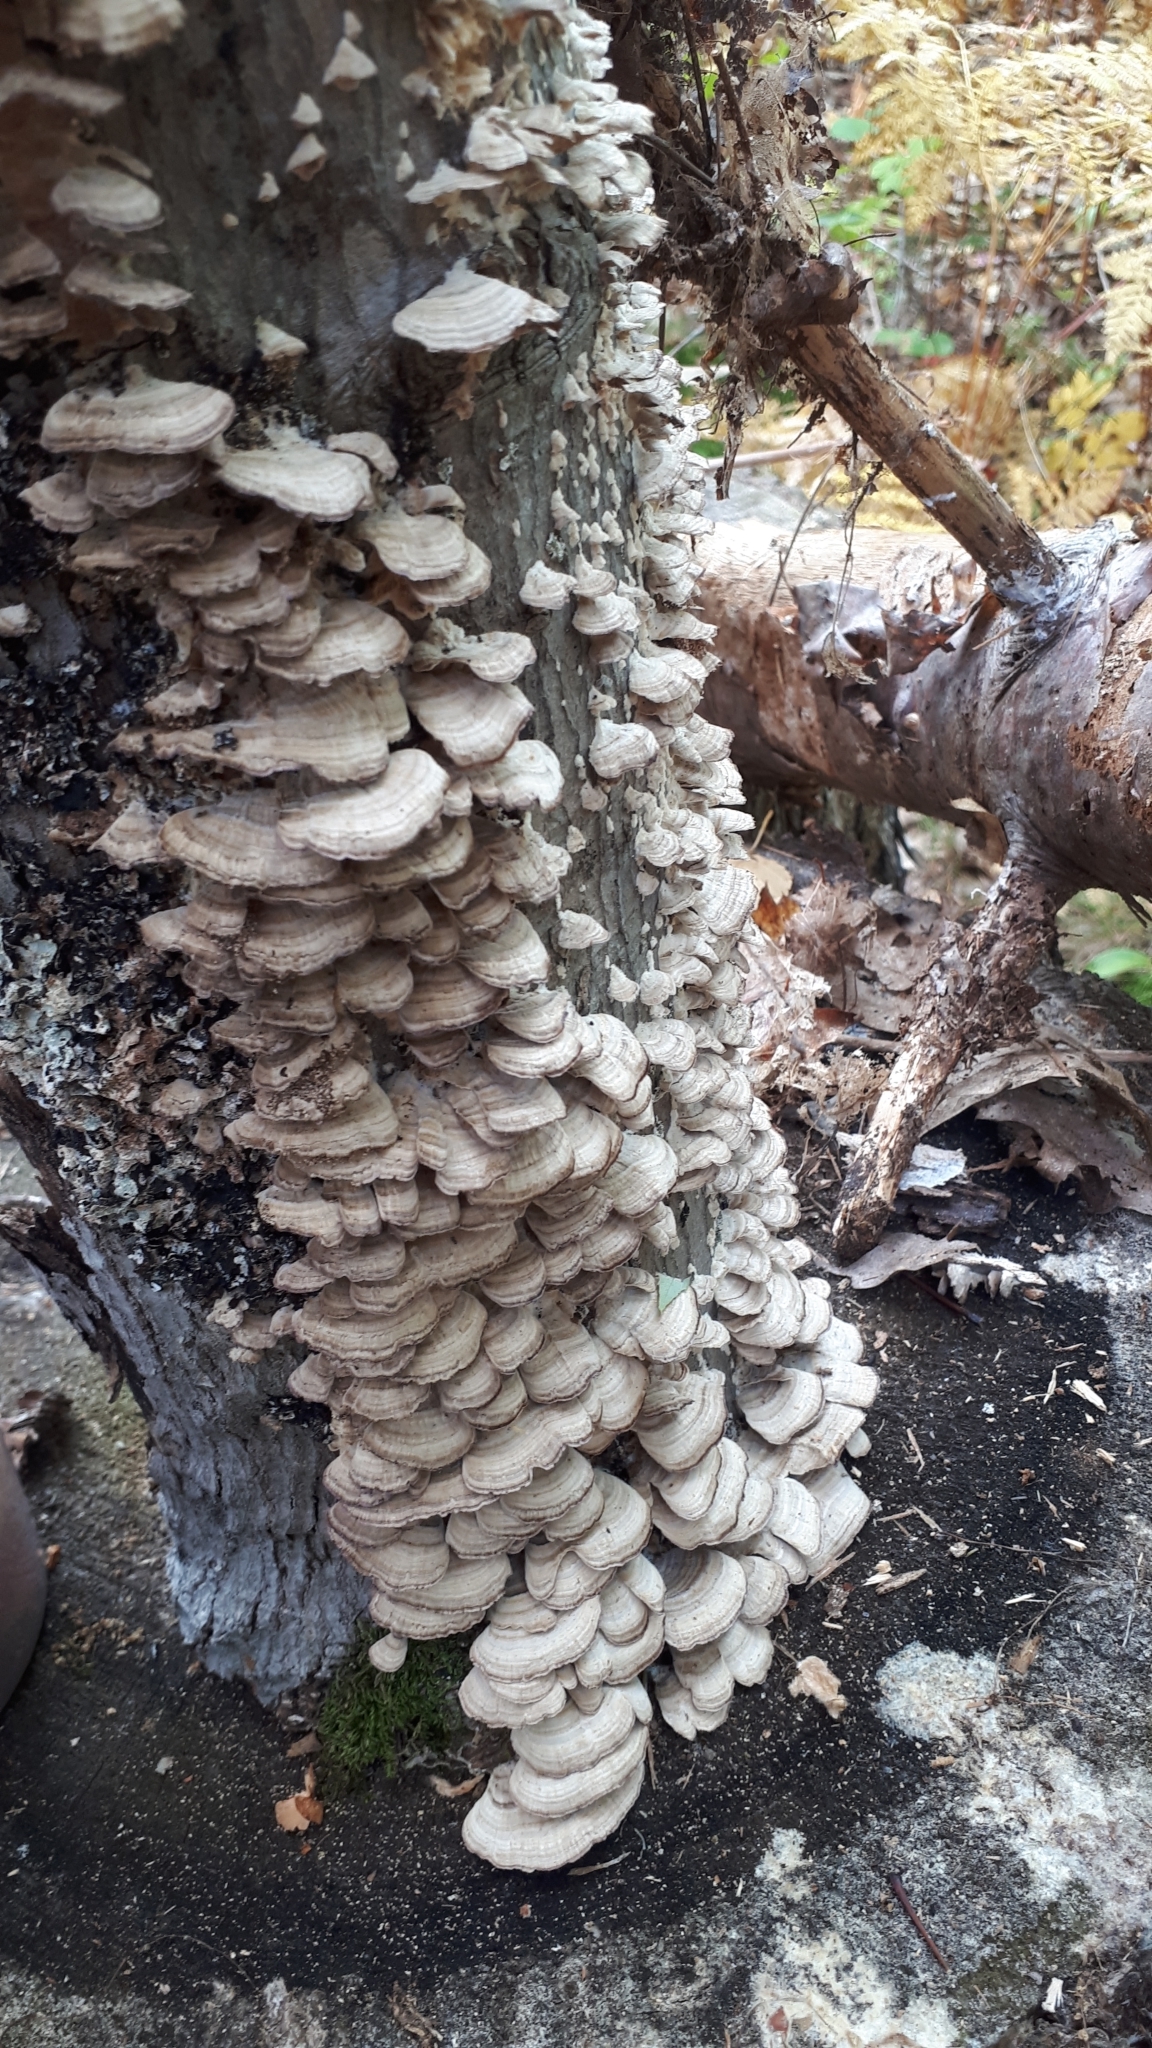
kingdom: Fungi
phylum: Basidiomycota
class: Agaricomycetes
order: Hymenochaetales
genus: Trichaptum
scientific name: Trichaptum biforme
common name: Violet-toothed polypore
